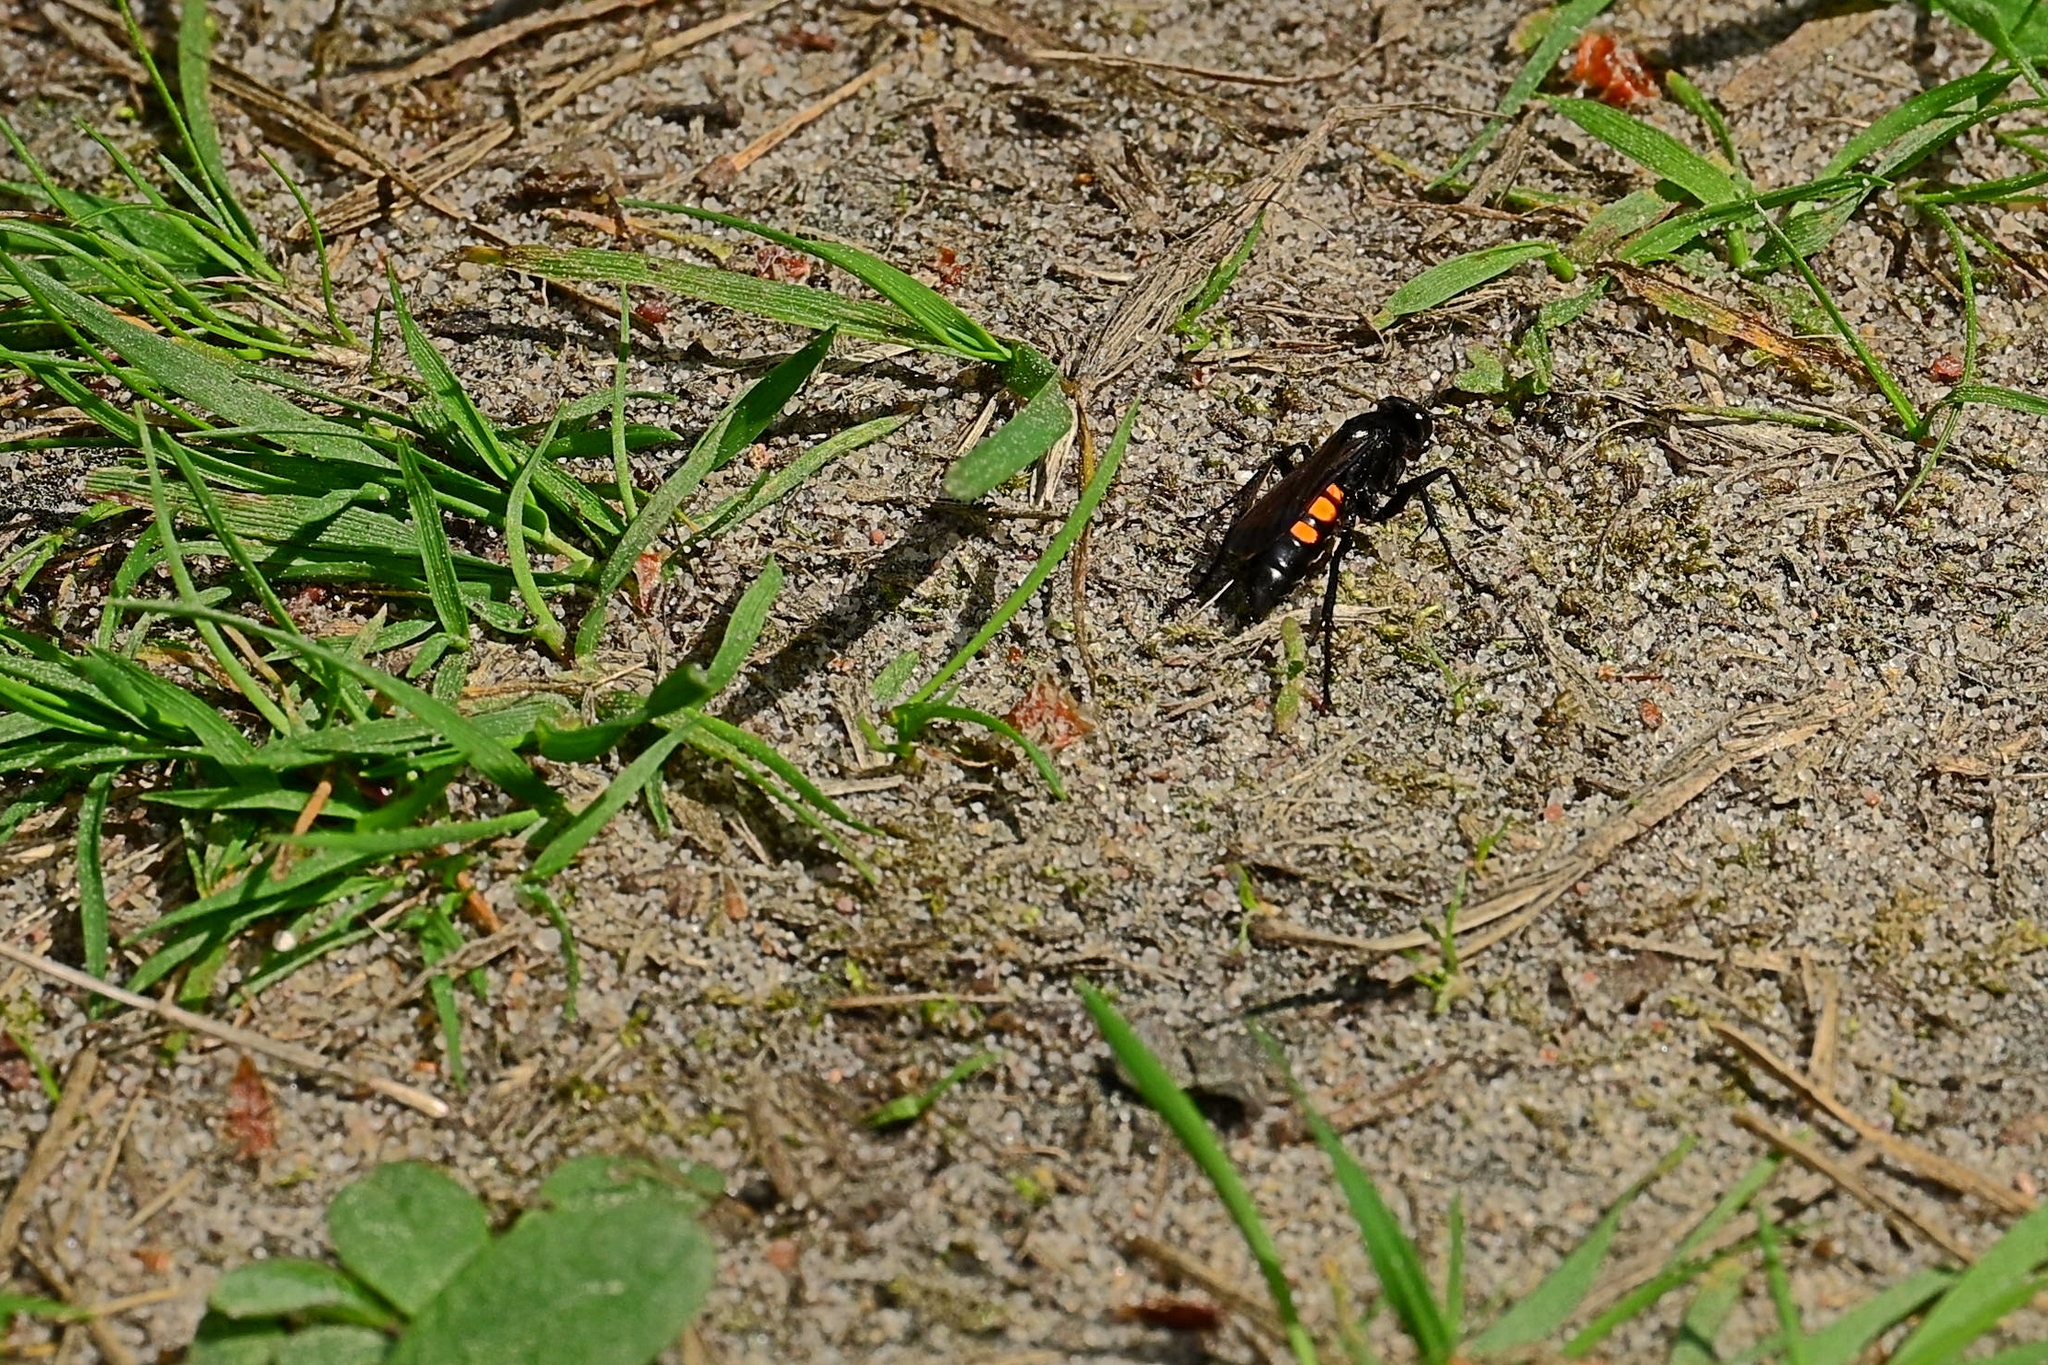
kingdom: Animalia
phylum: Arthropoda
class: Insecta
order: Hymenoptera
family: Pompilidae
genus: Anoplius
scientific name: Anoplius viaticus
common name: Black banded spider wasp
